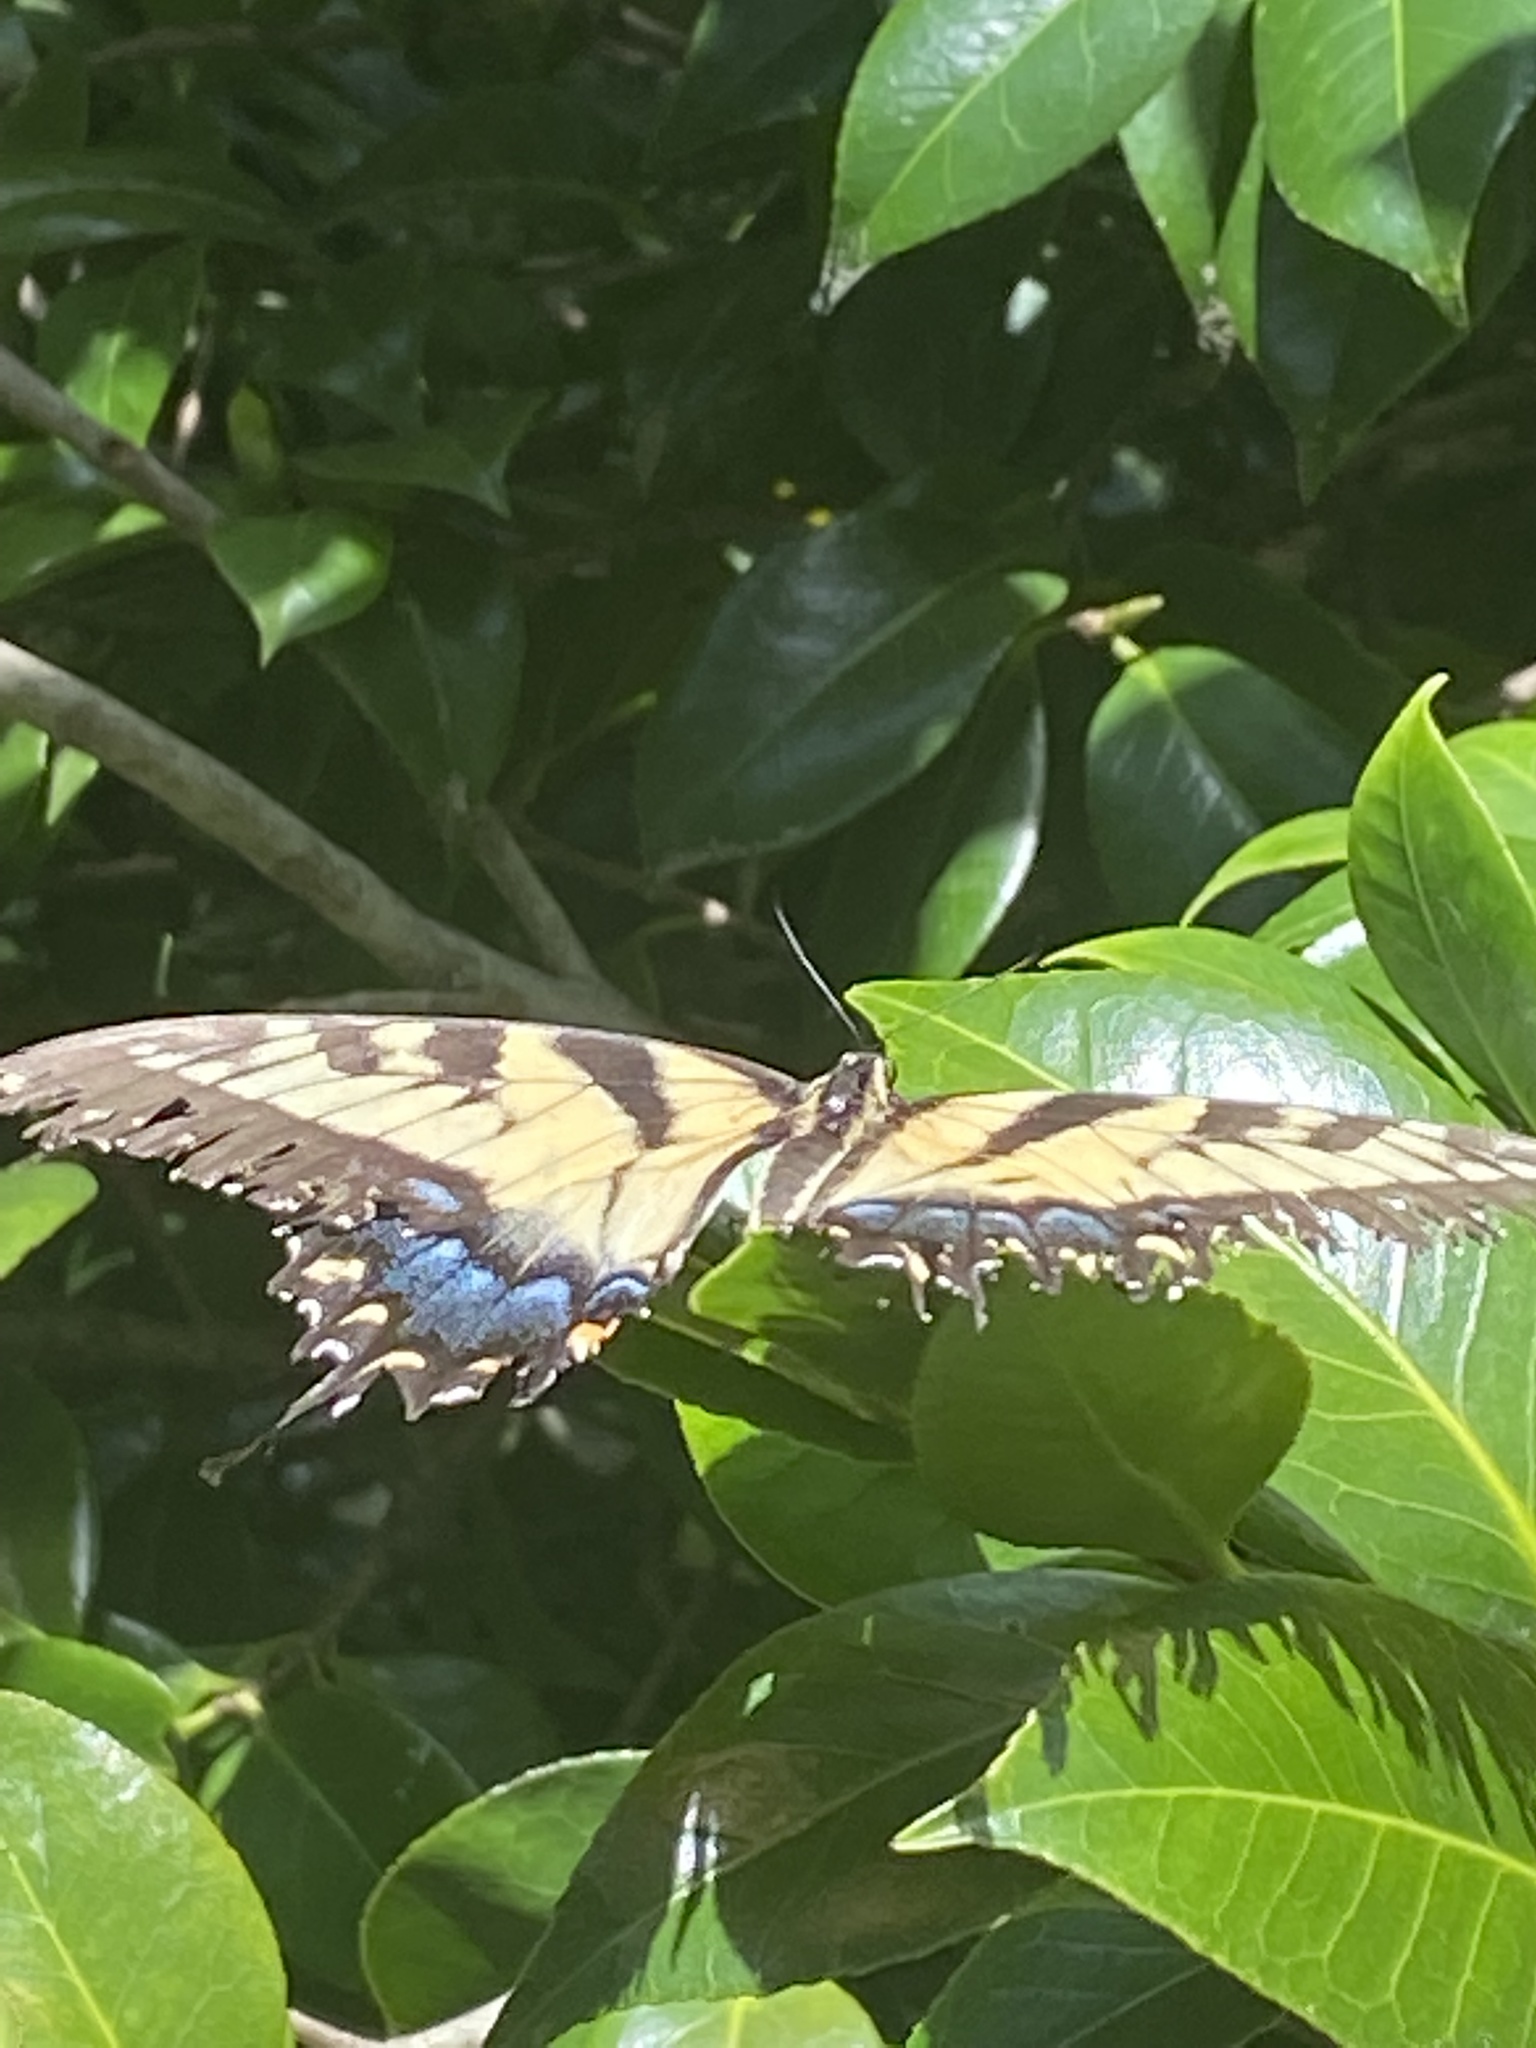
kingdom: Animalia
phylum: Arthropoda
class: Insecta
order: Lepidoptera
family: Papilionidae
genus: Papilio
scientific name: Papilio glaucus
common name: Tiger swallowtail
